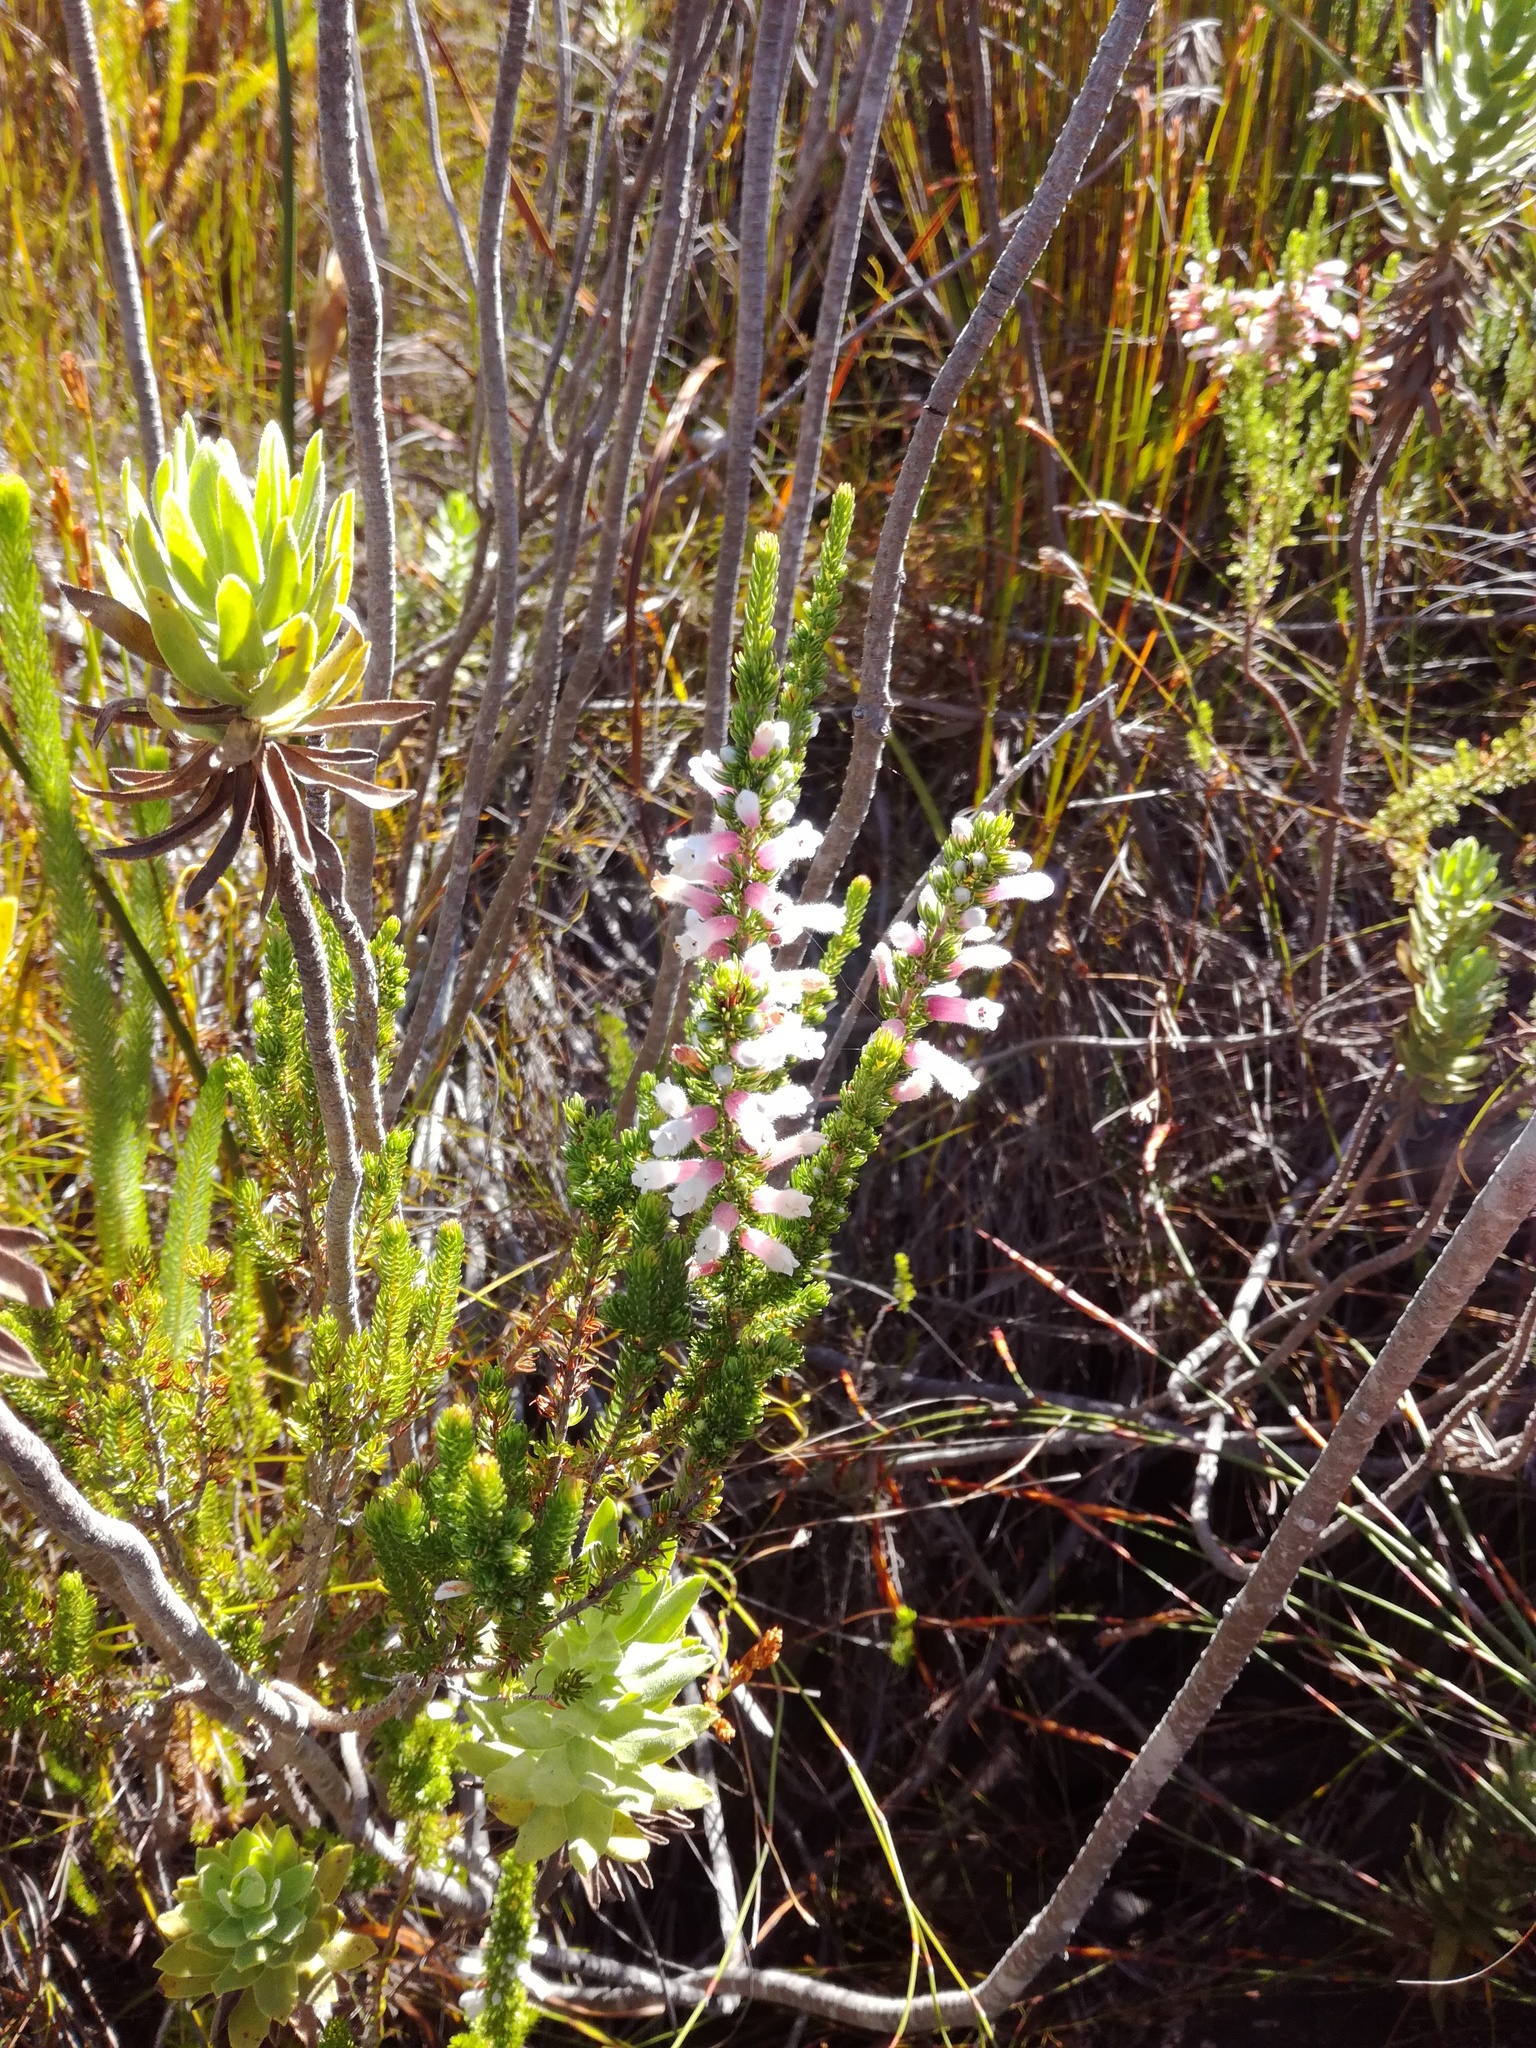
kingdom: Plantae
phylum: Tracheophyta
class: Magnoliopsida
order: Ericales
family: Ericaceae
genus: Erica
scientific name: Erica perspicua
